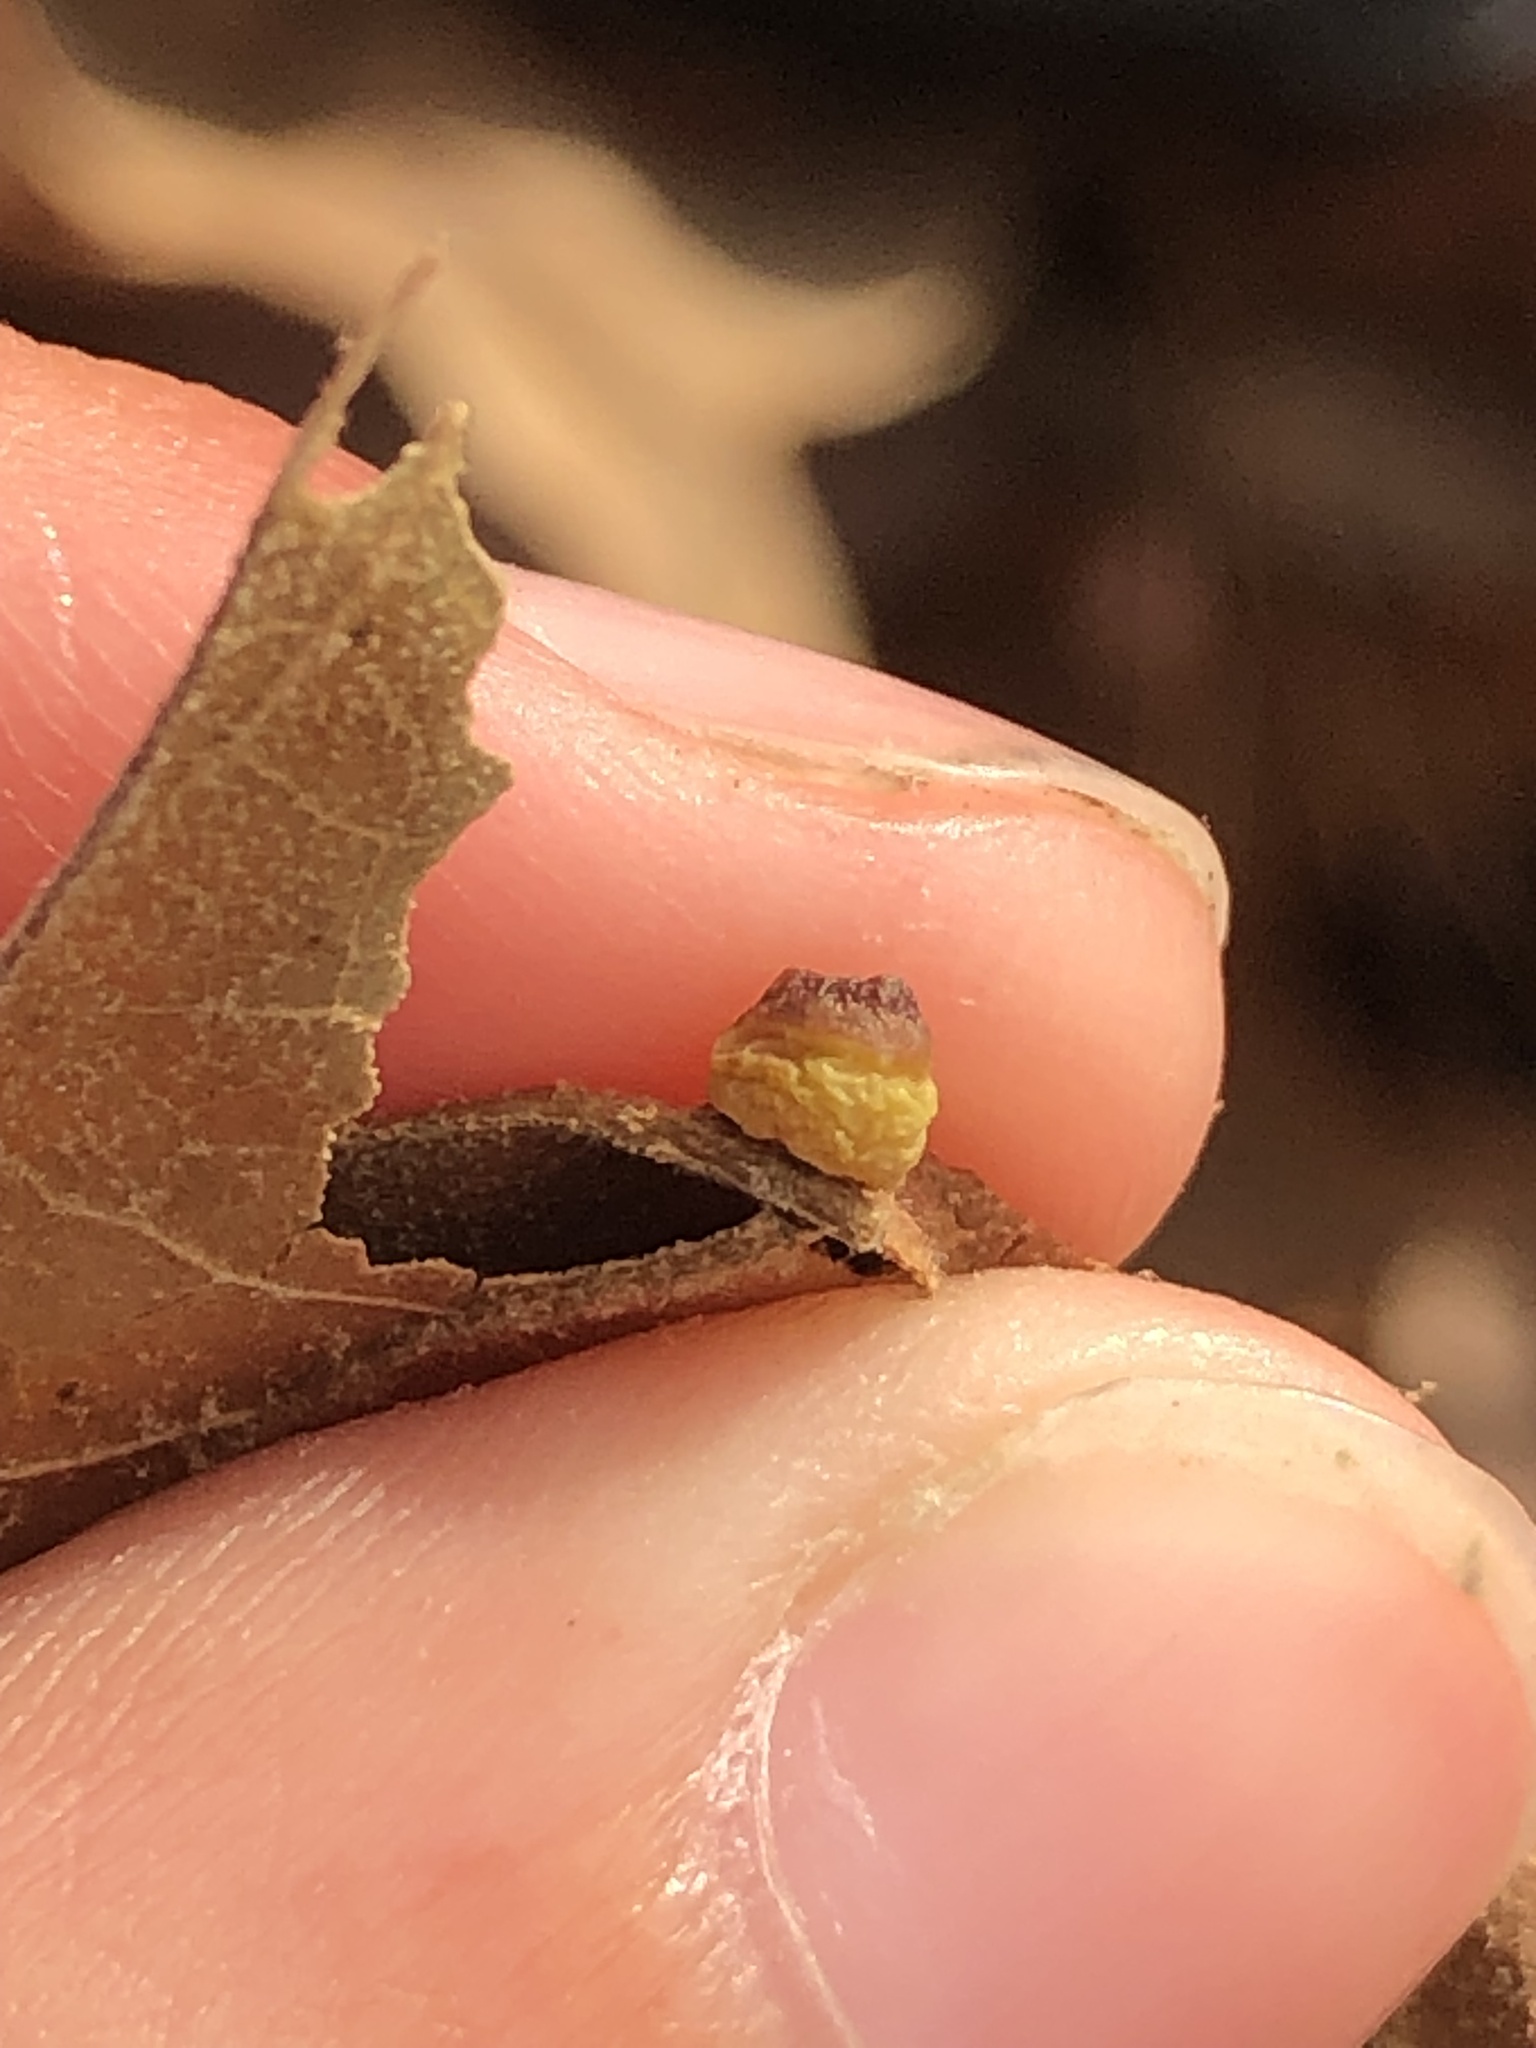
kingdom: Animalia
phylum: Arthropoda
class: Insecta
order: Hymenoptera
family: Cynipidae
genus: Kokkocynips
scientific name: Kokkocynips rileyi
